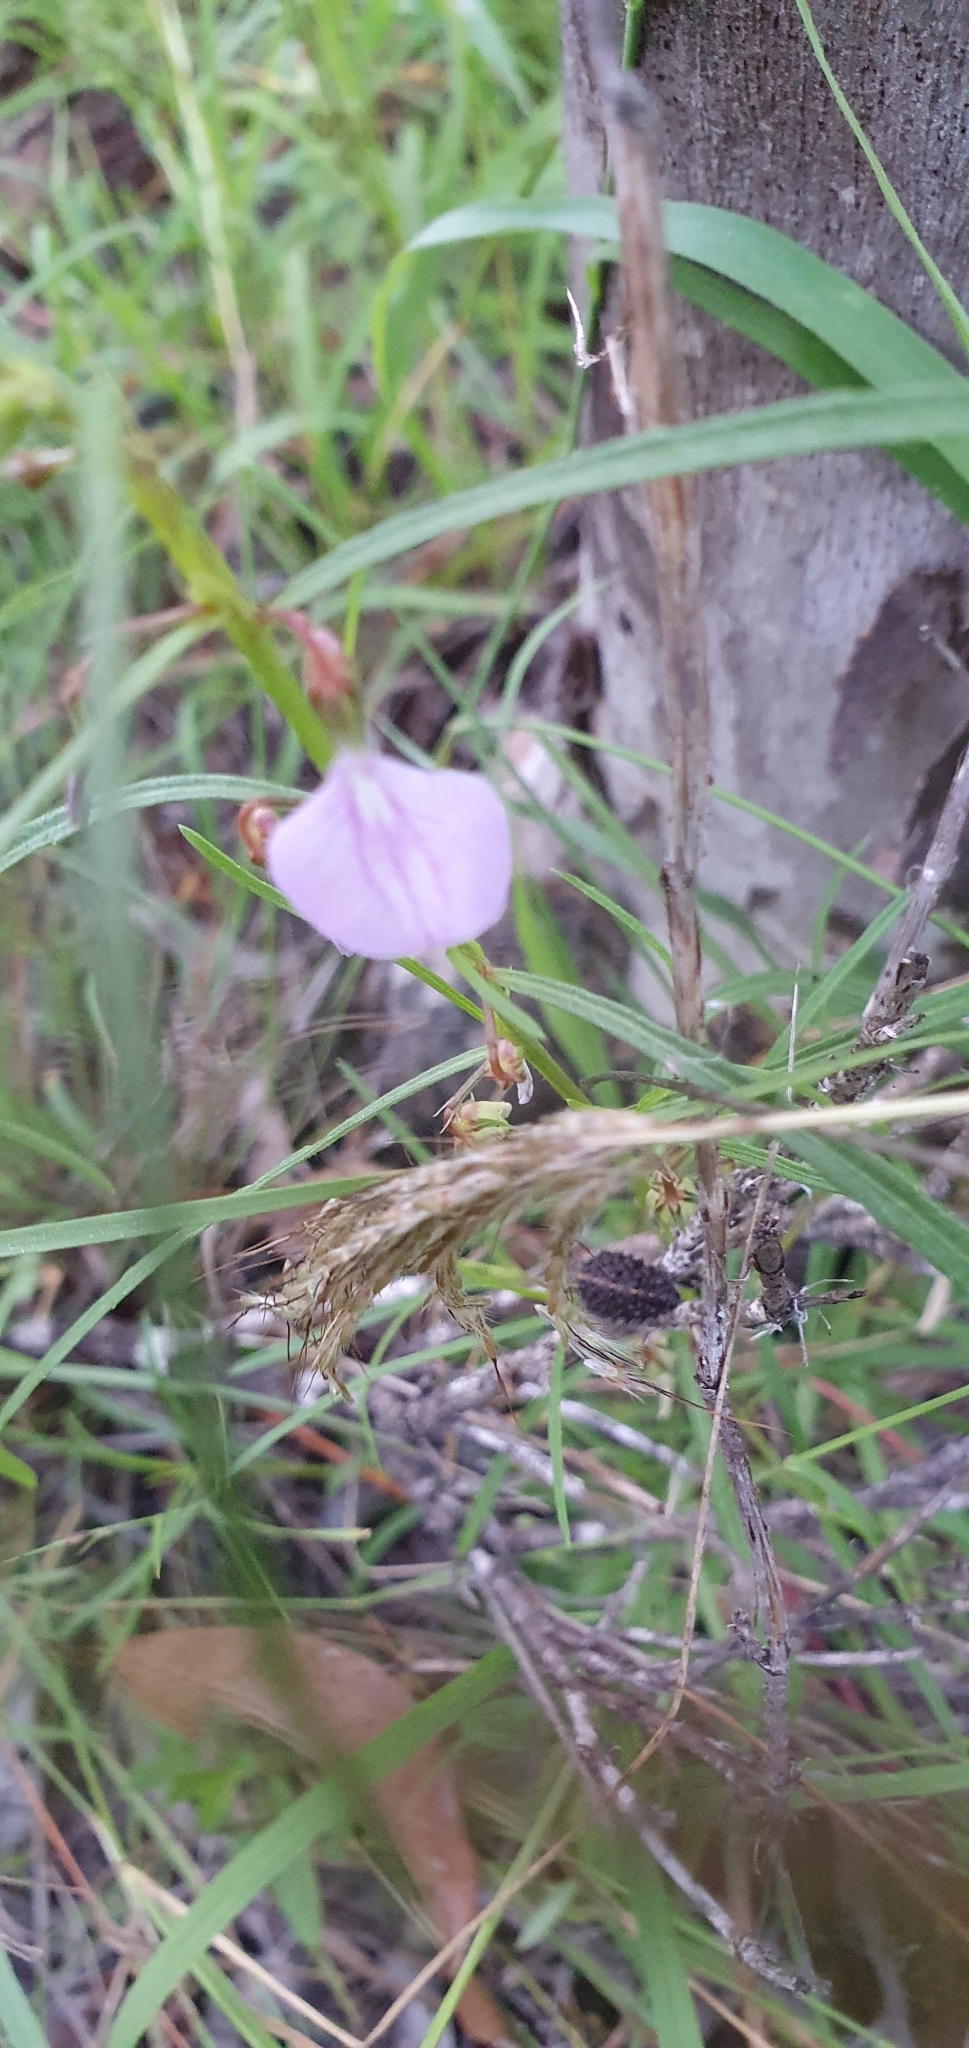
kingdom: Plantae
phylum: Tracheophyta
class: Magnoliopsida
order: Malpighiales
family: Violaceae
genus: Pigea
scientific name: Pigea enneasperma
